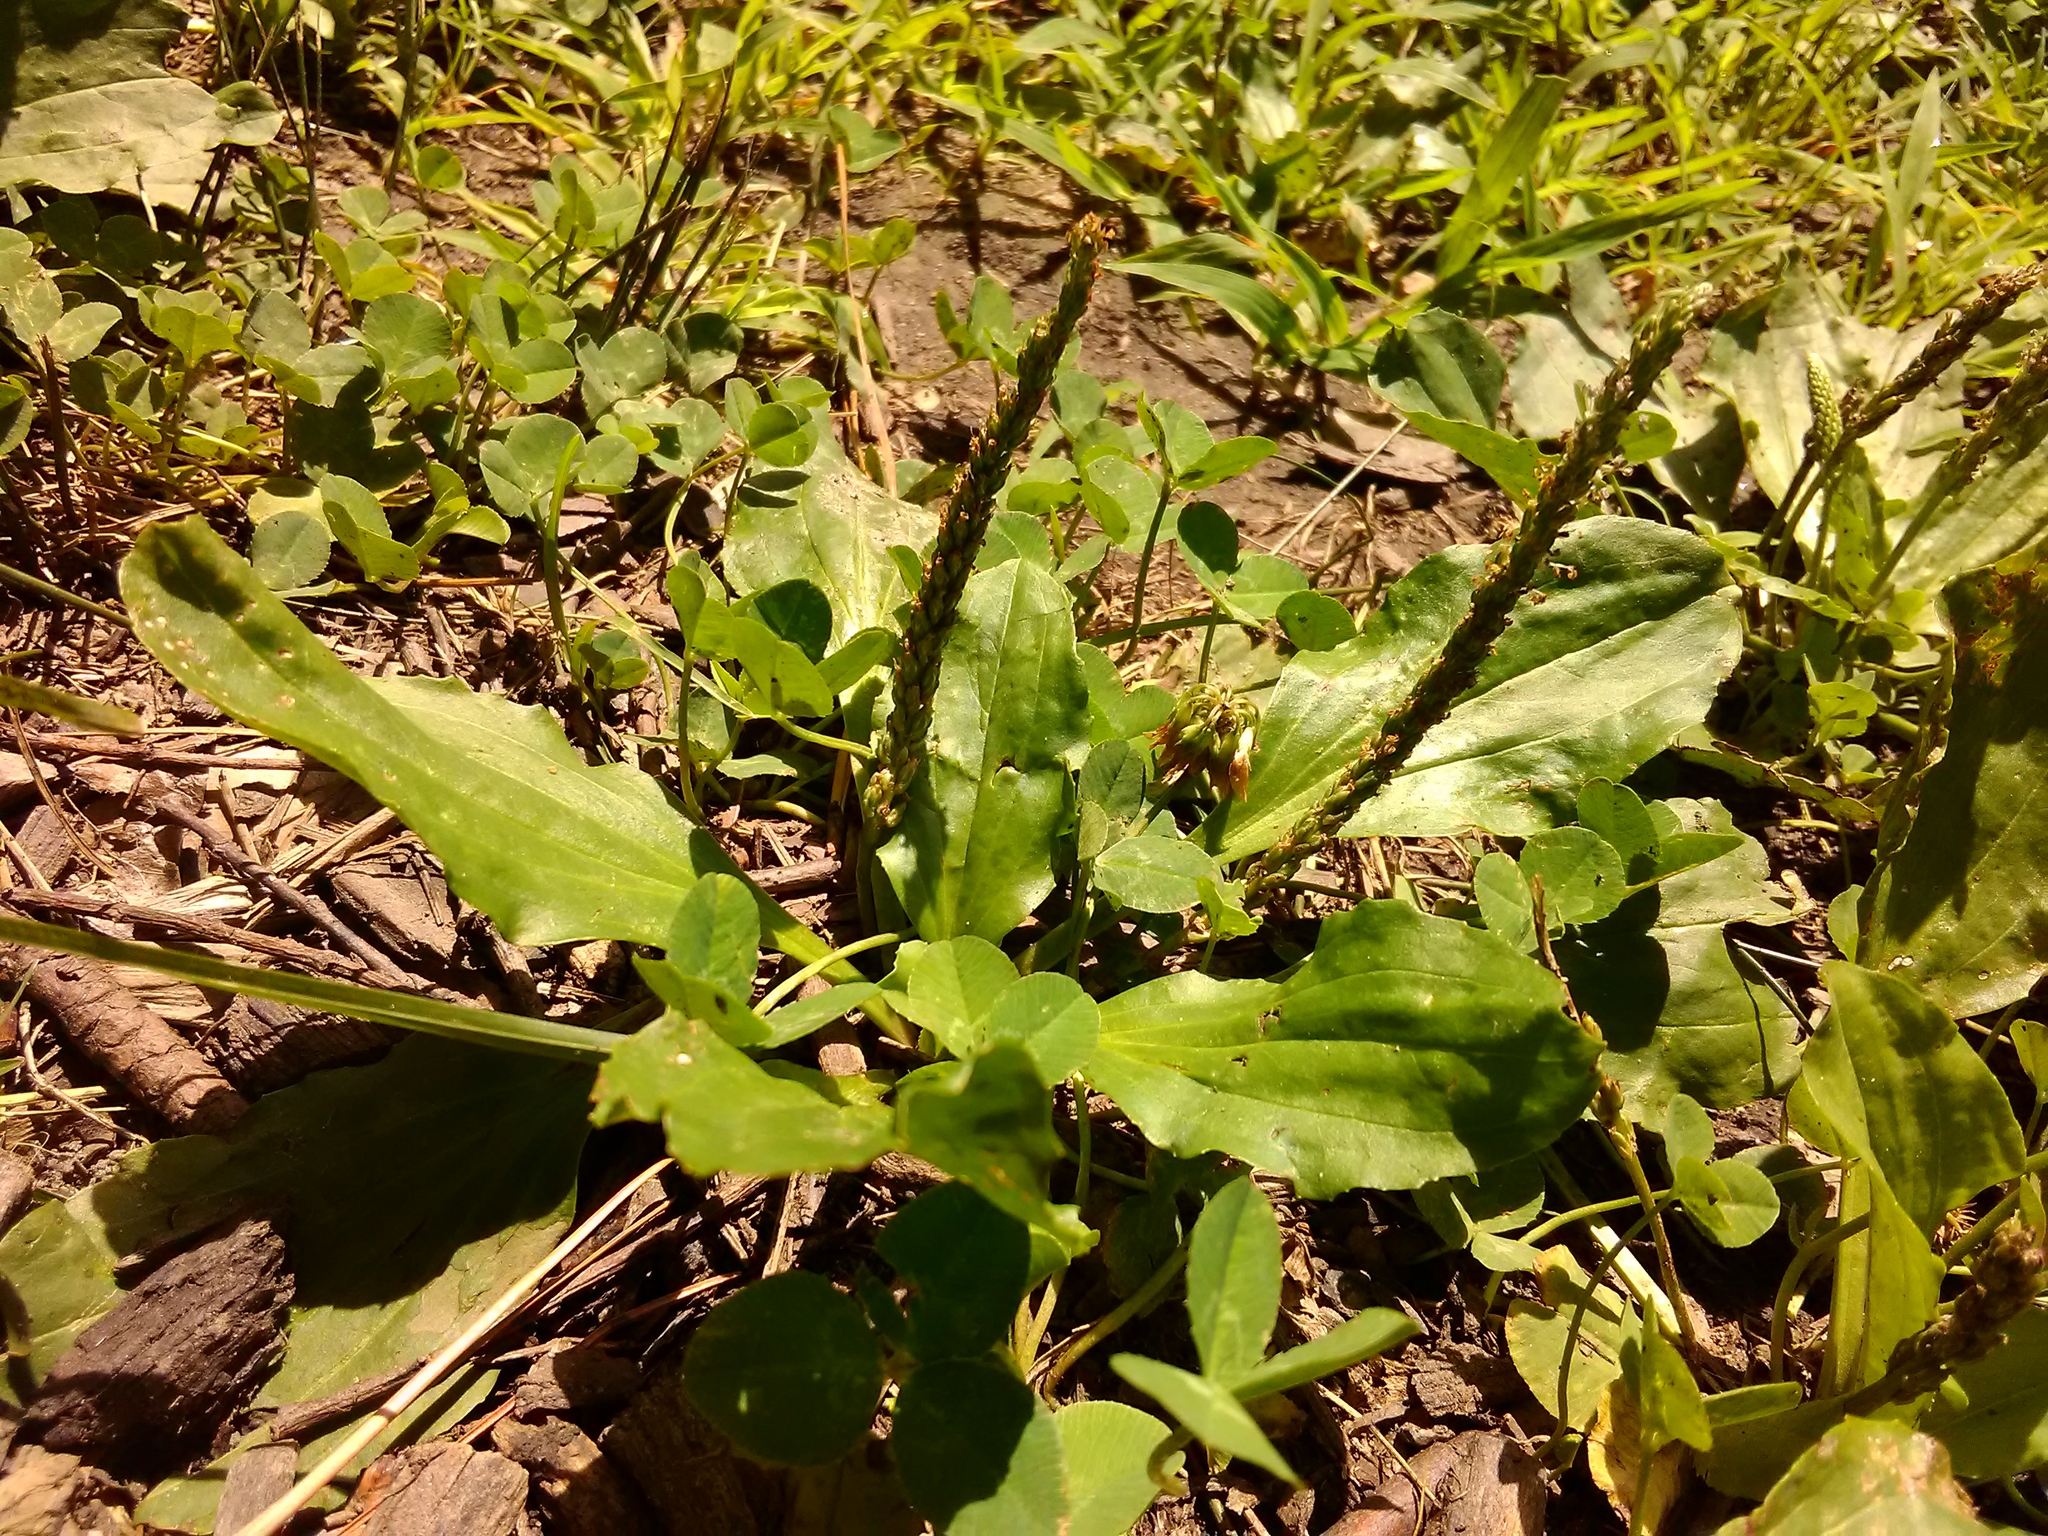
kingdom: Plantae
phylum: Tracheophyta
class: Magnoliopsida
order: Lamiales
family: Plantaginaceae
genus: Plantago
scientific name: Plantago major
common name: Common plantain
